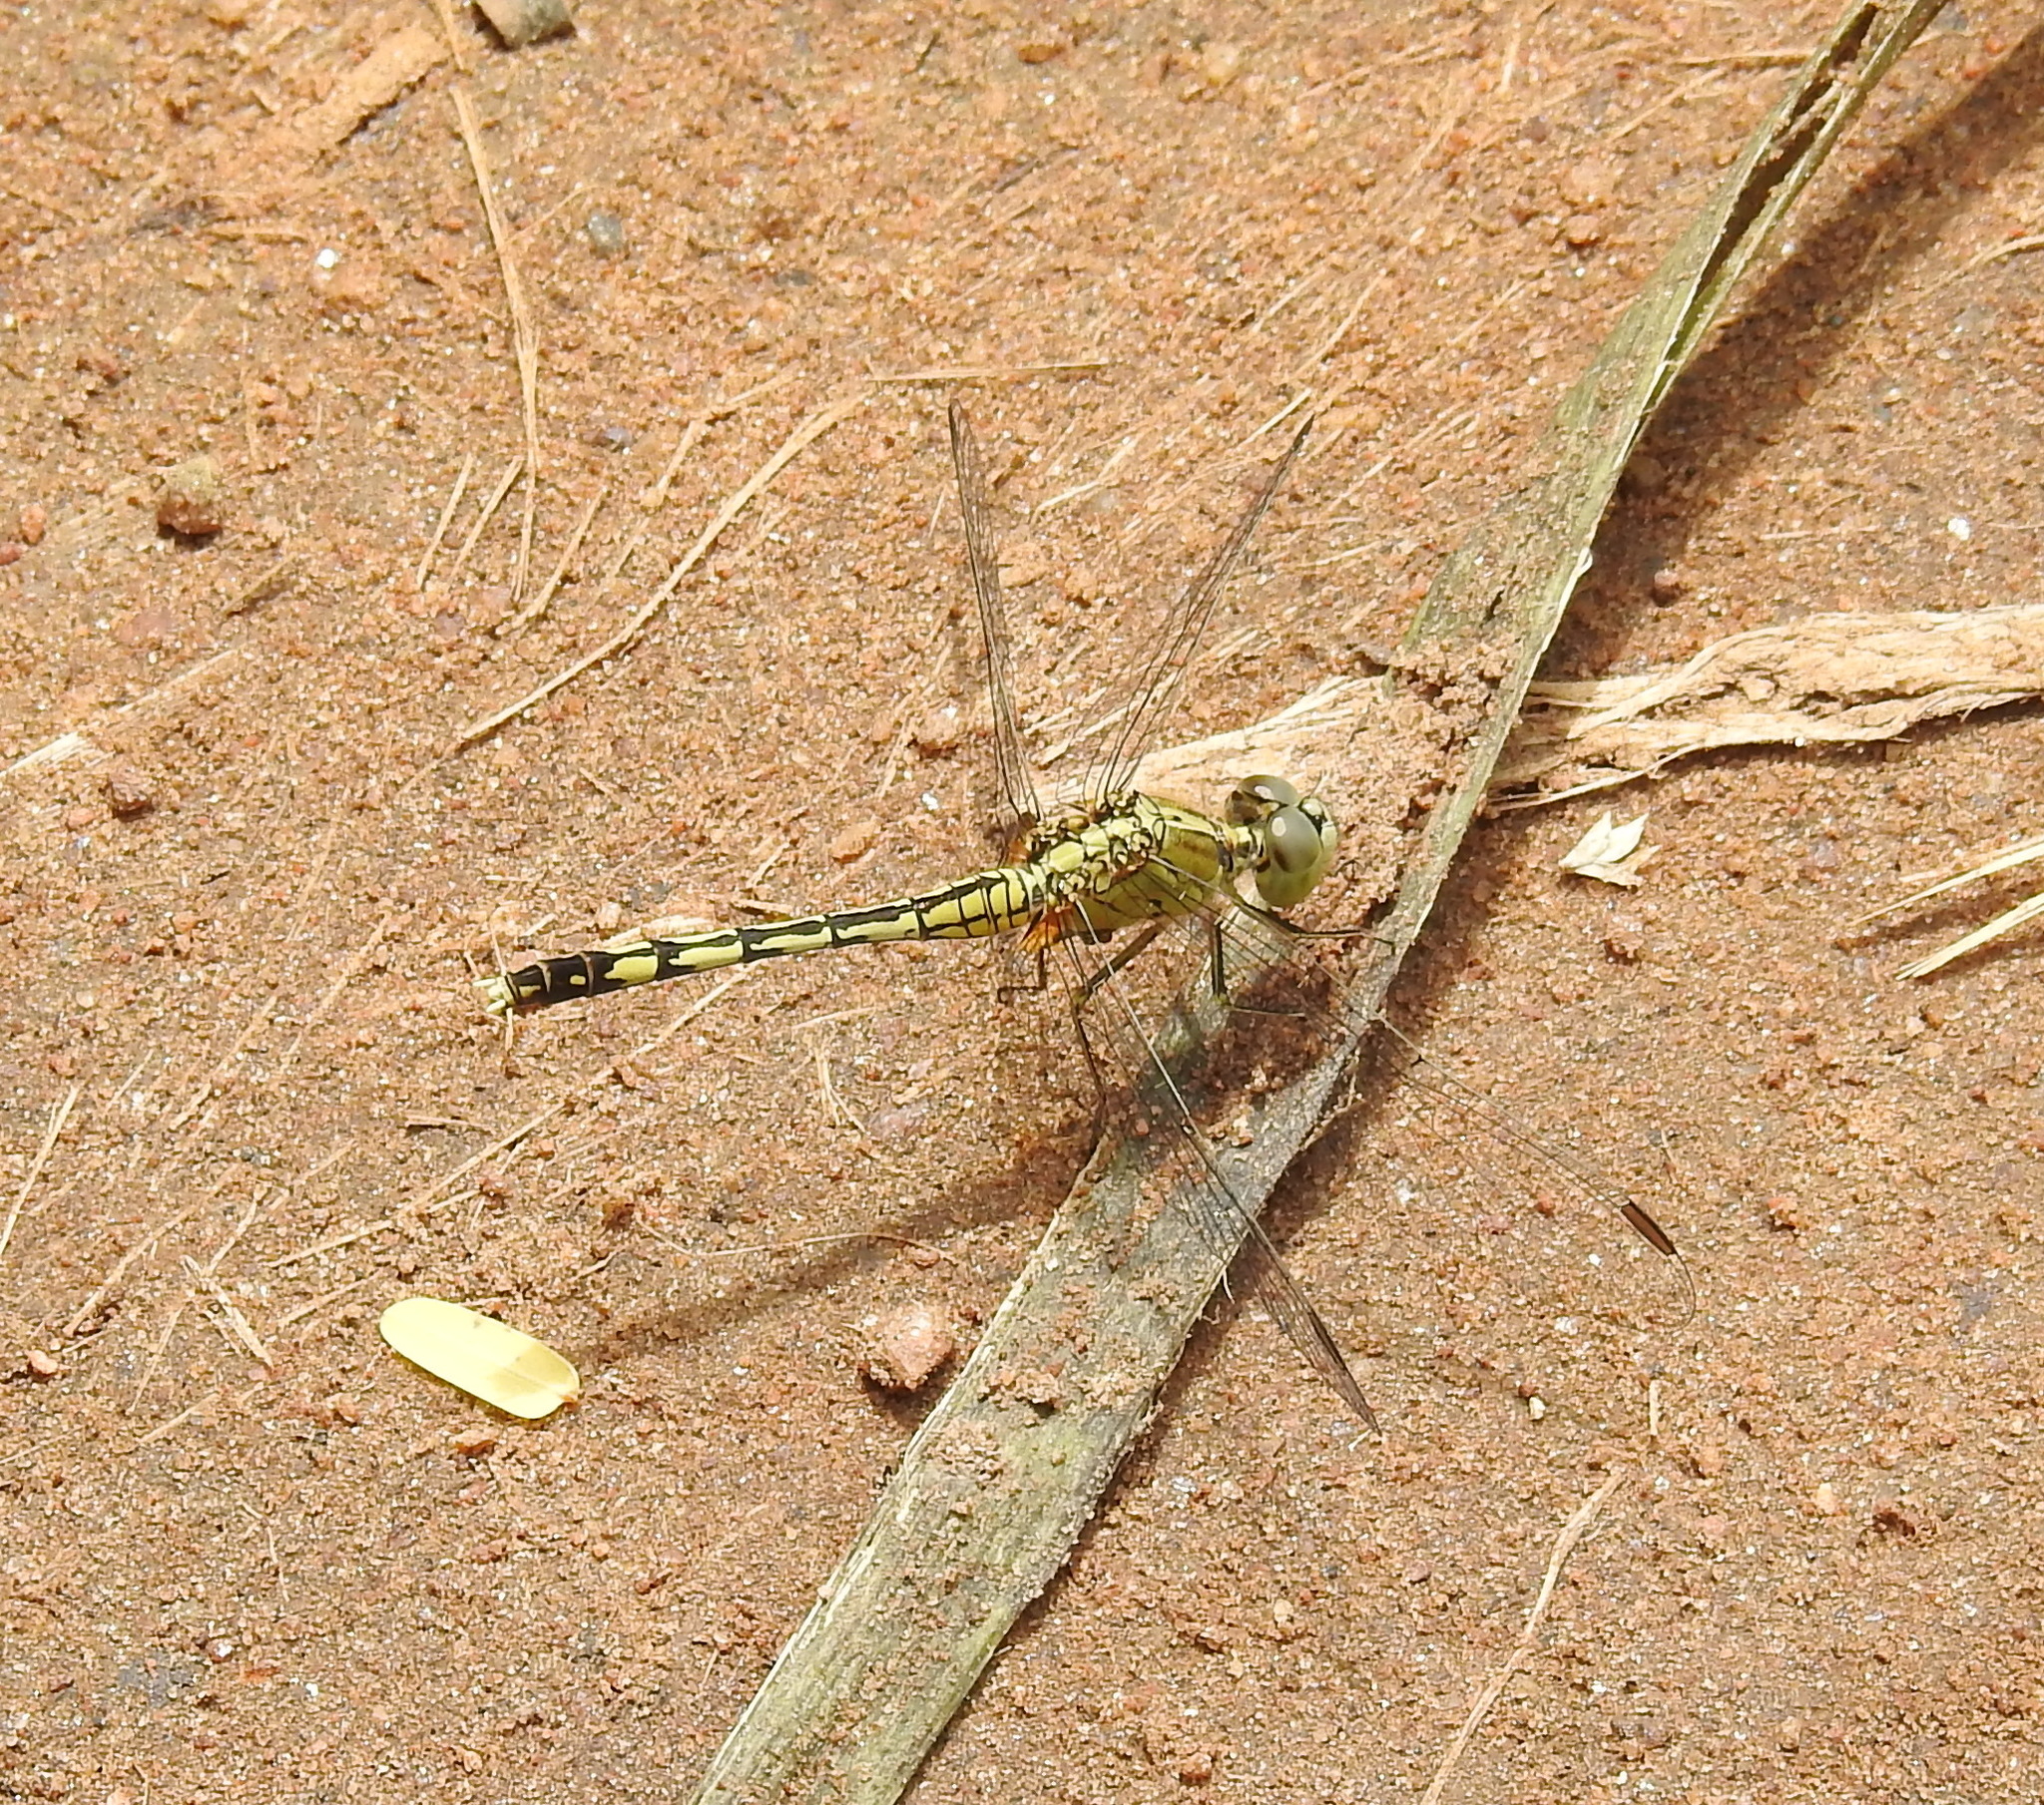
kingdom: Animalia
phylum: Arthropoda
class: Insecta
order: Odonata
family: Libellulidae
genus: Diplacodes
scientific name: Diplacodes trivialis
